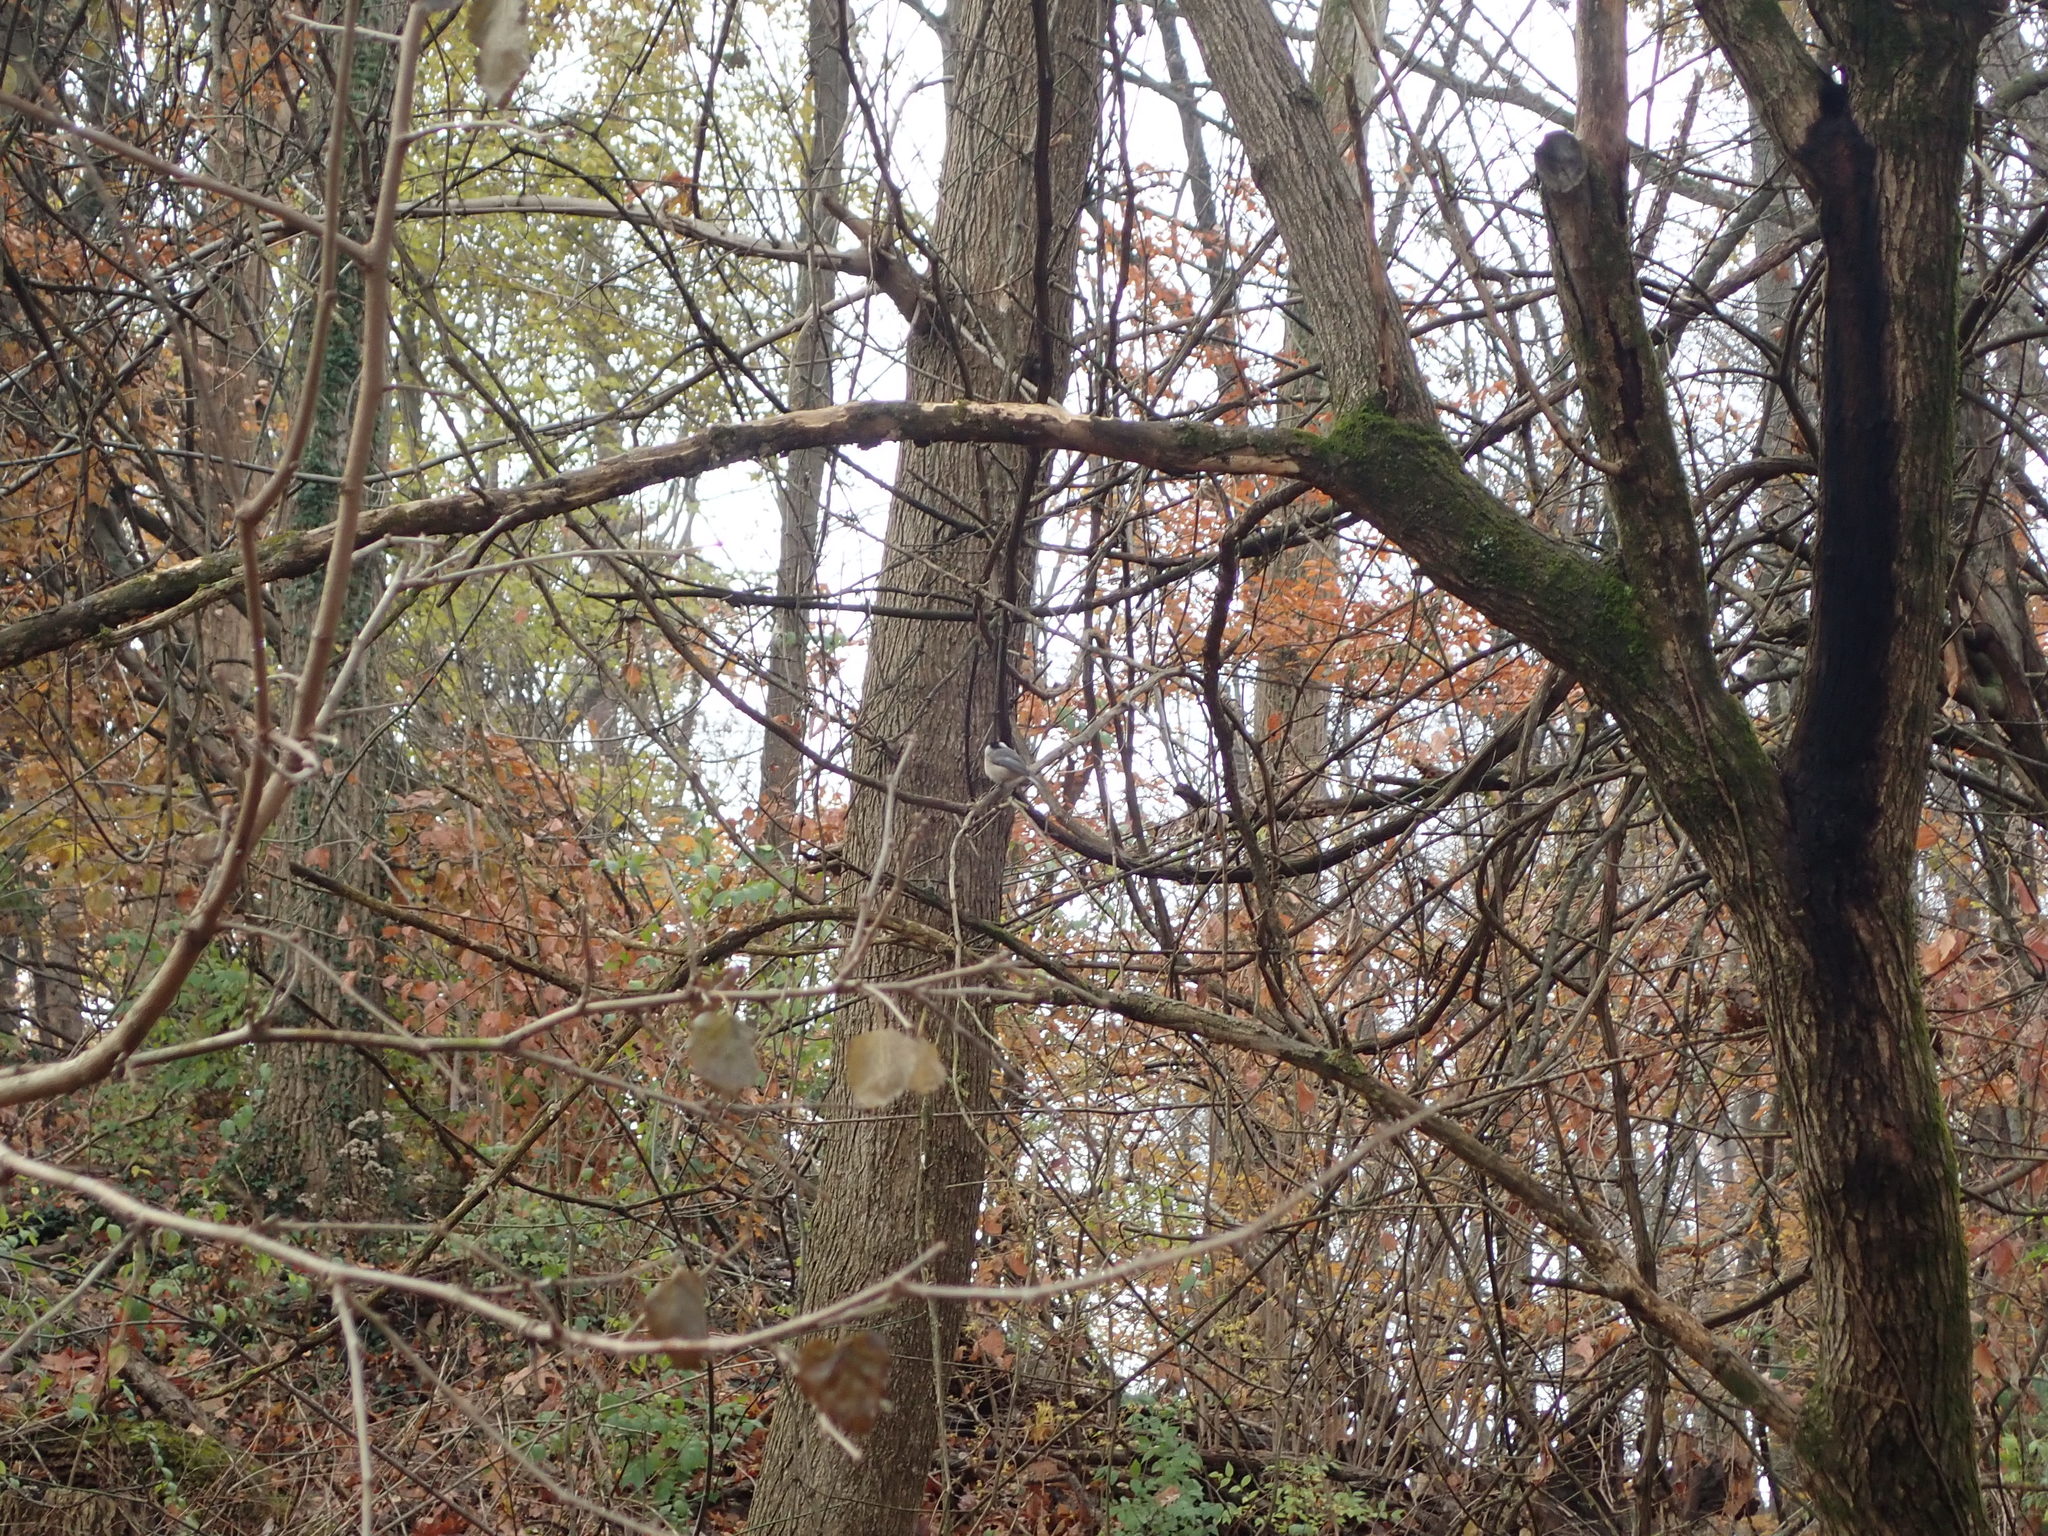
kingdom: Animalia
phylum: Chordata
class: Aves
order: Passeriformes
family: Paridae
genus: Poecile
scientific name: Poecile carolinensis
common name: Carolina chickadee
